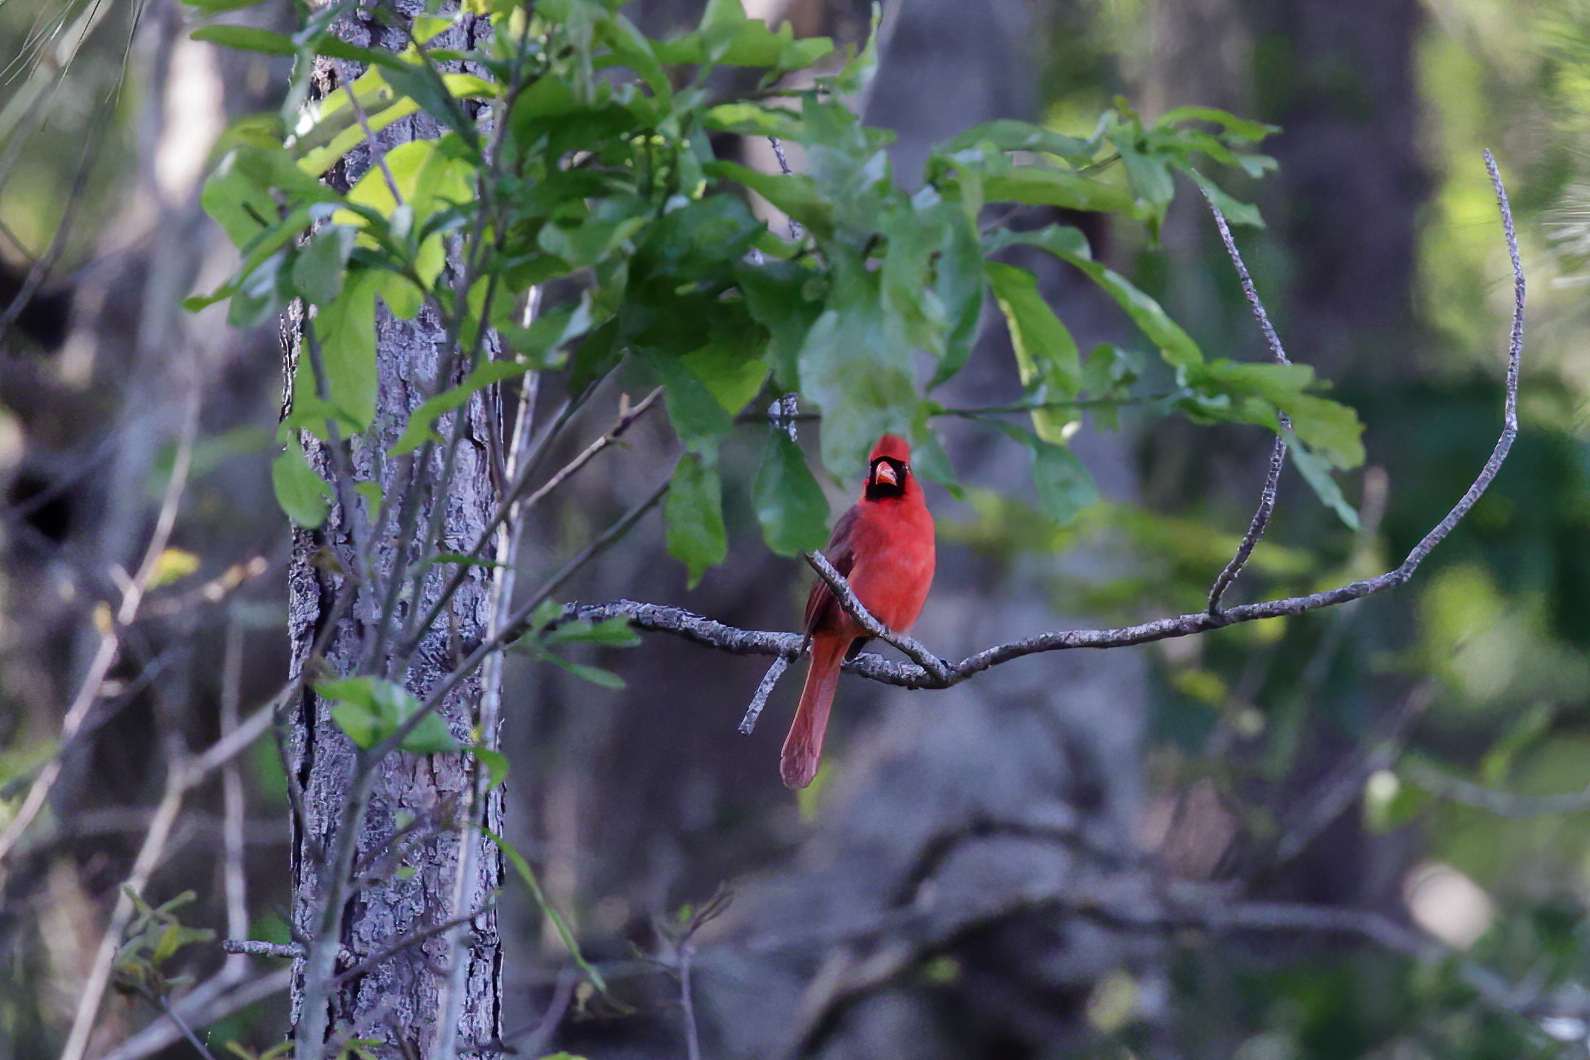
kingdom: Animalia
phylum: Chordata
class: Aves
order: Passeriformes
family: Cardinalidae
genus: Cardinalis
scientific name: Cardinalis cardinalis
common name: Northern cardinal
